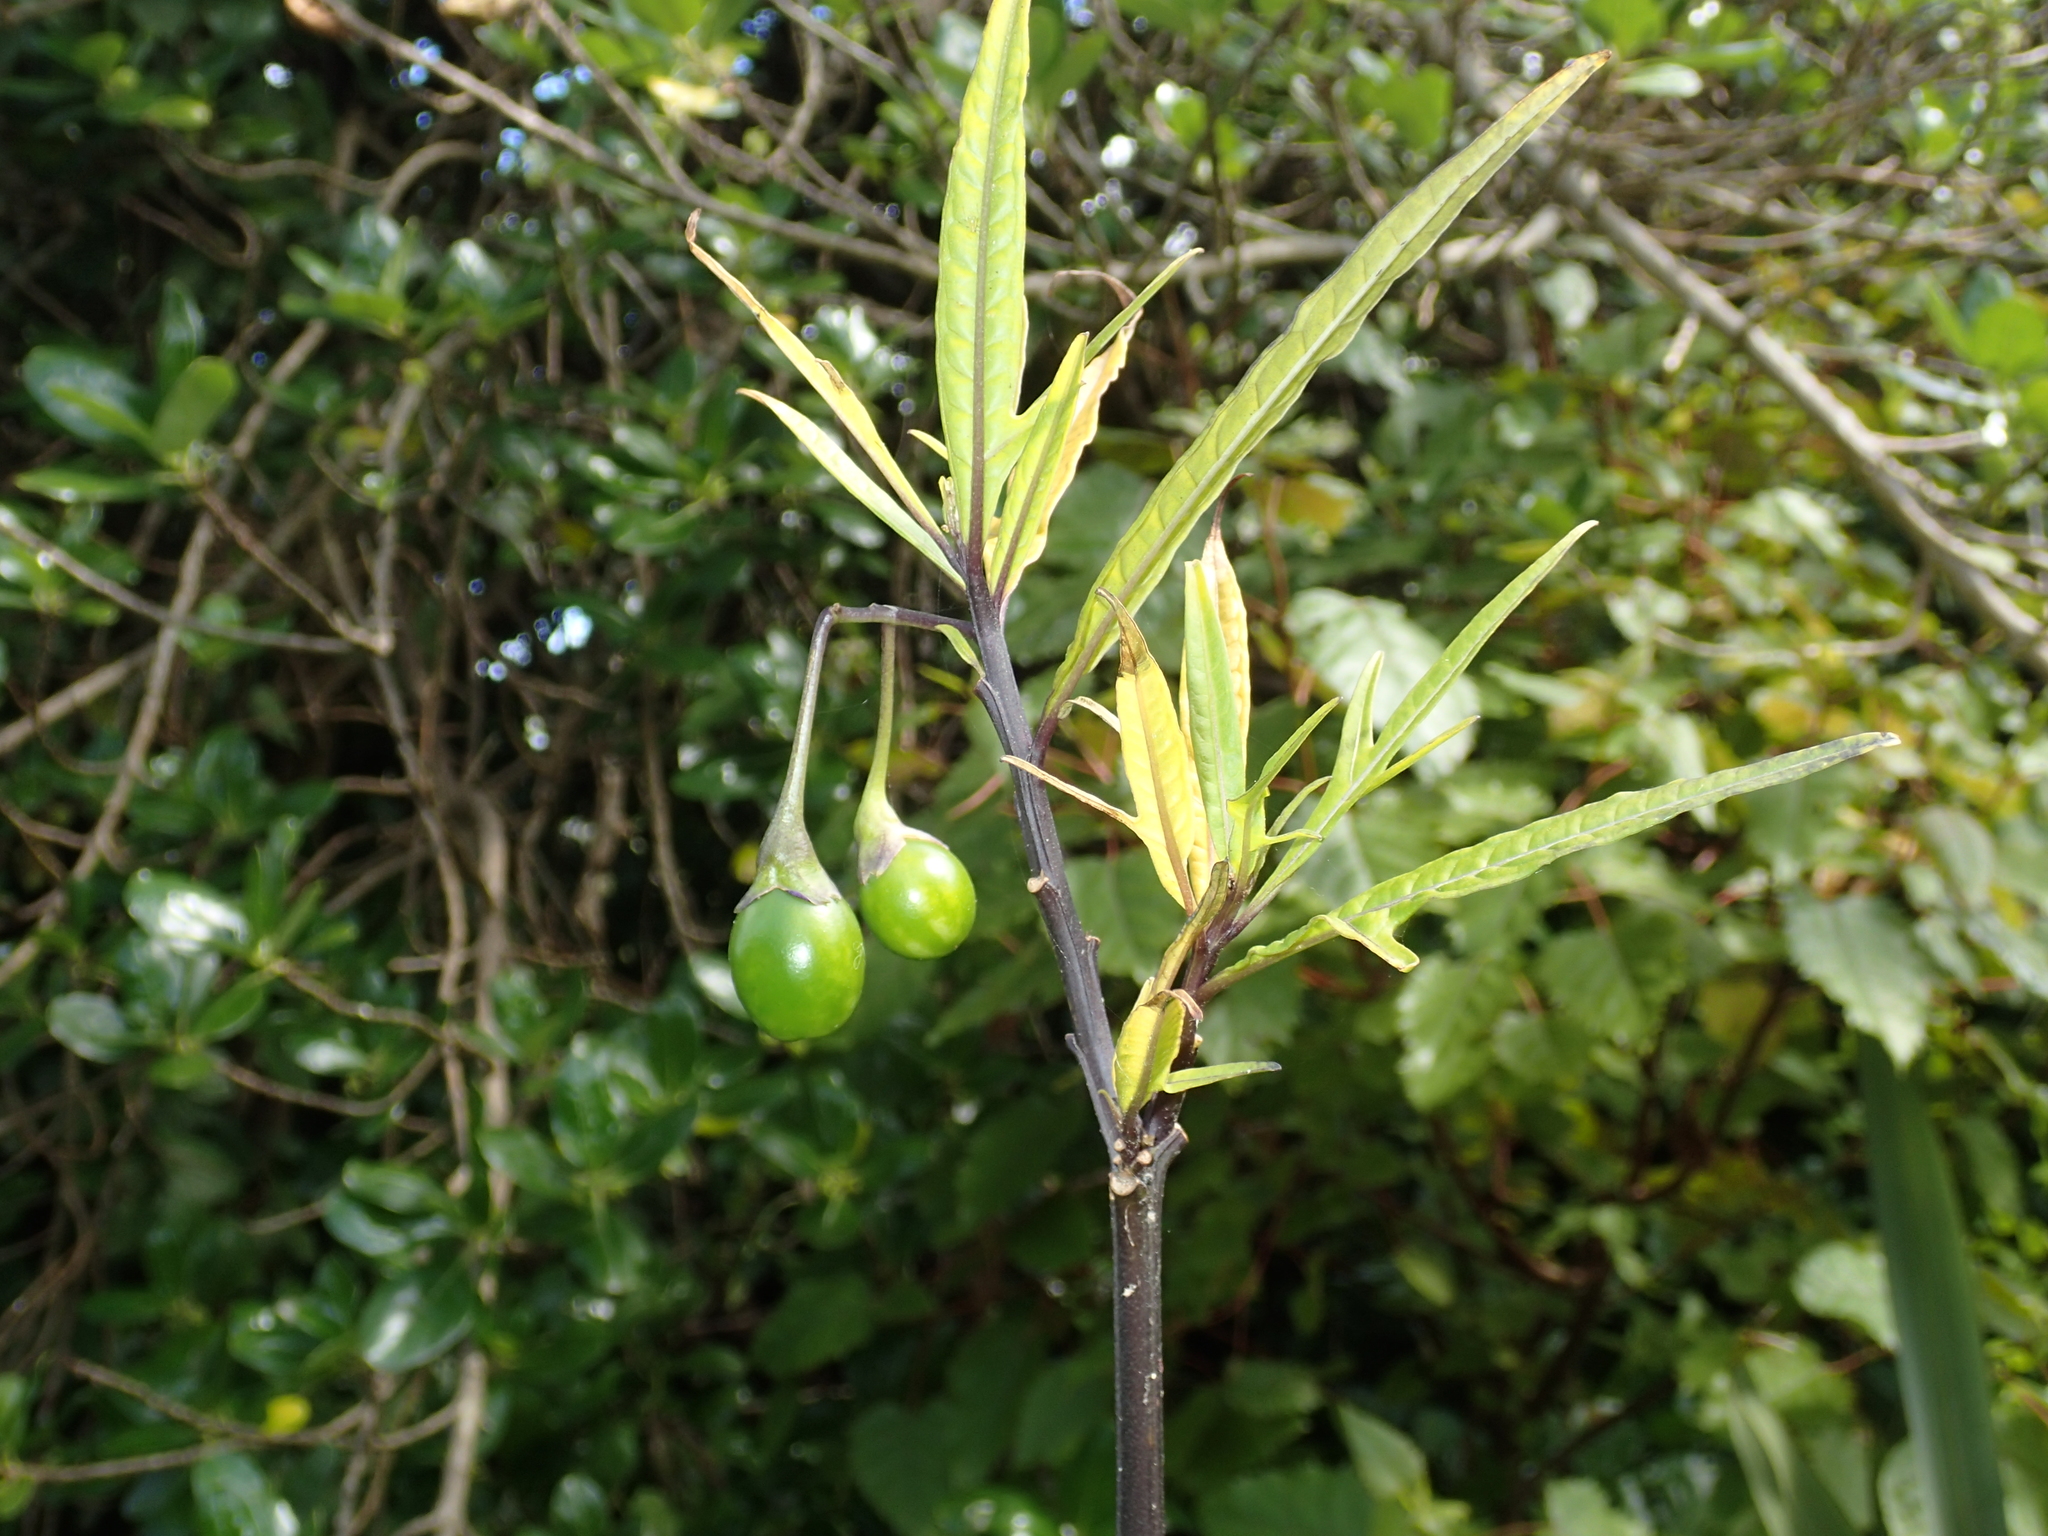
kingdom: Plantae
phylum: Tracheophyta
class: Magnoliopsida
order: Solanales
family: Solanaceae
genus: Solanum
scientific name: Solanum laciniatum
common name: Kangaroo-apple
